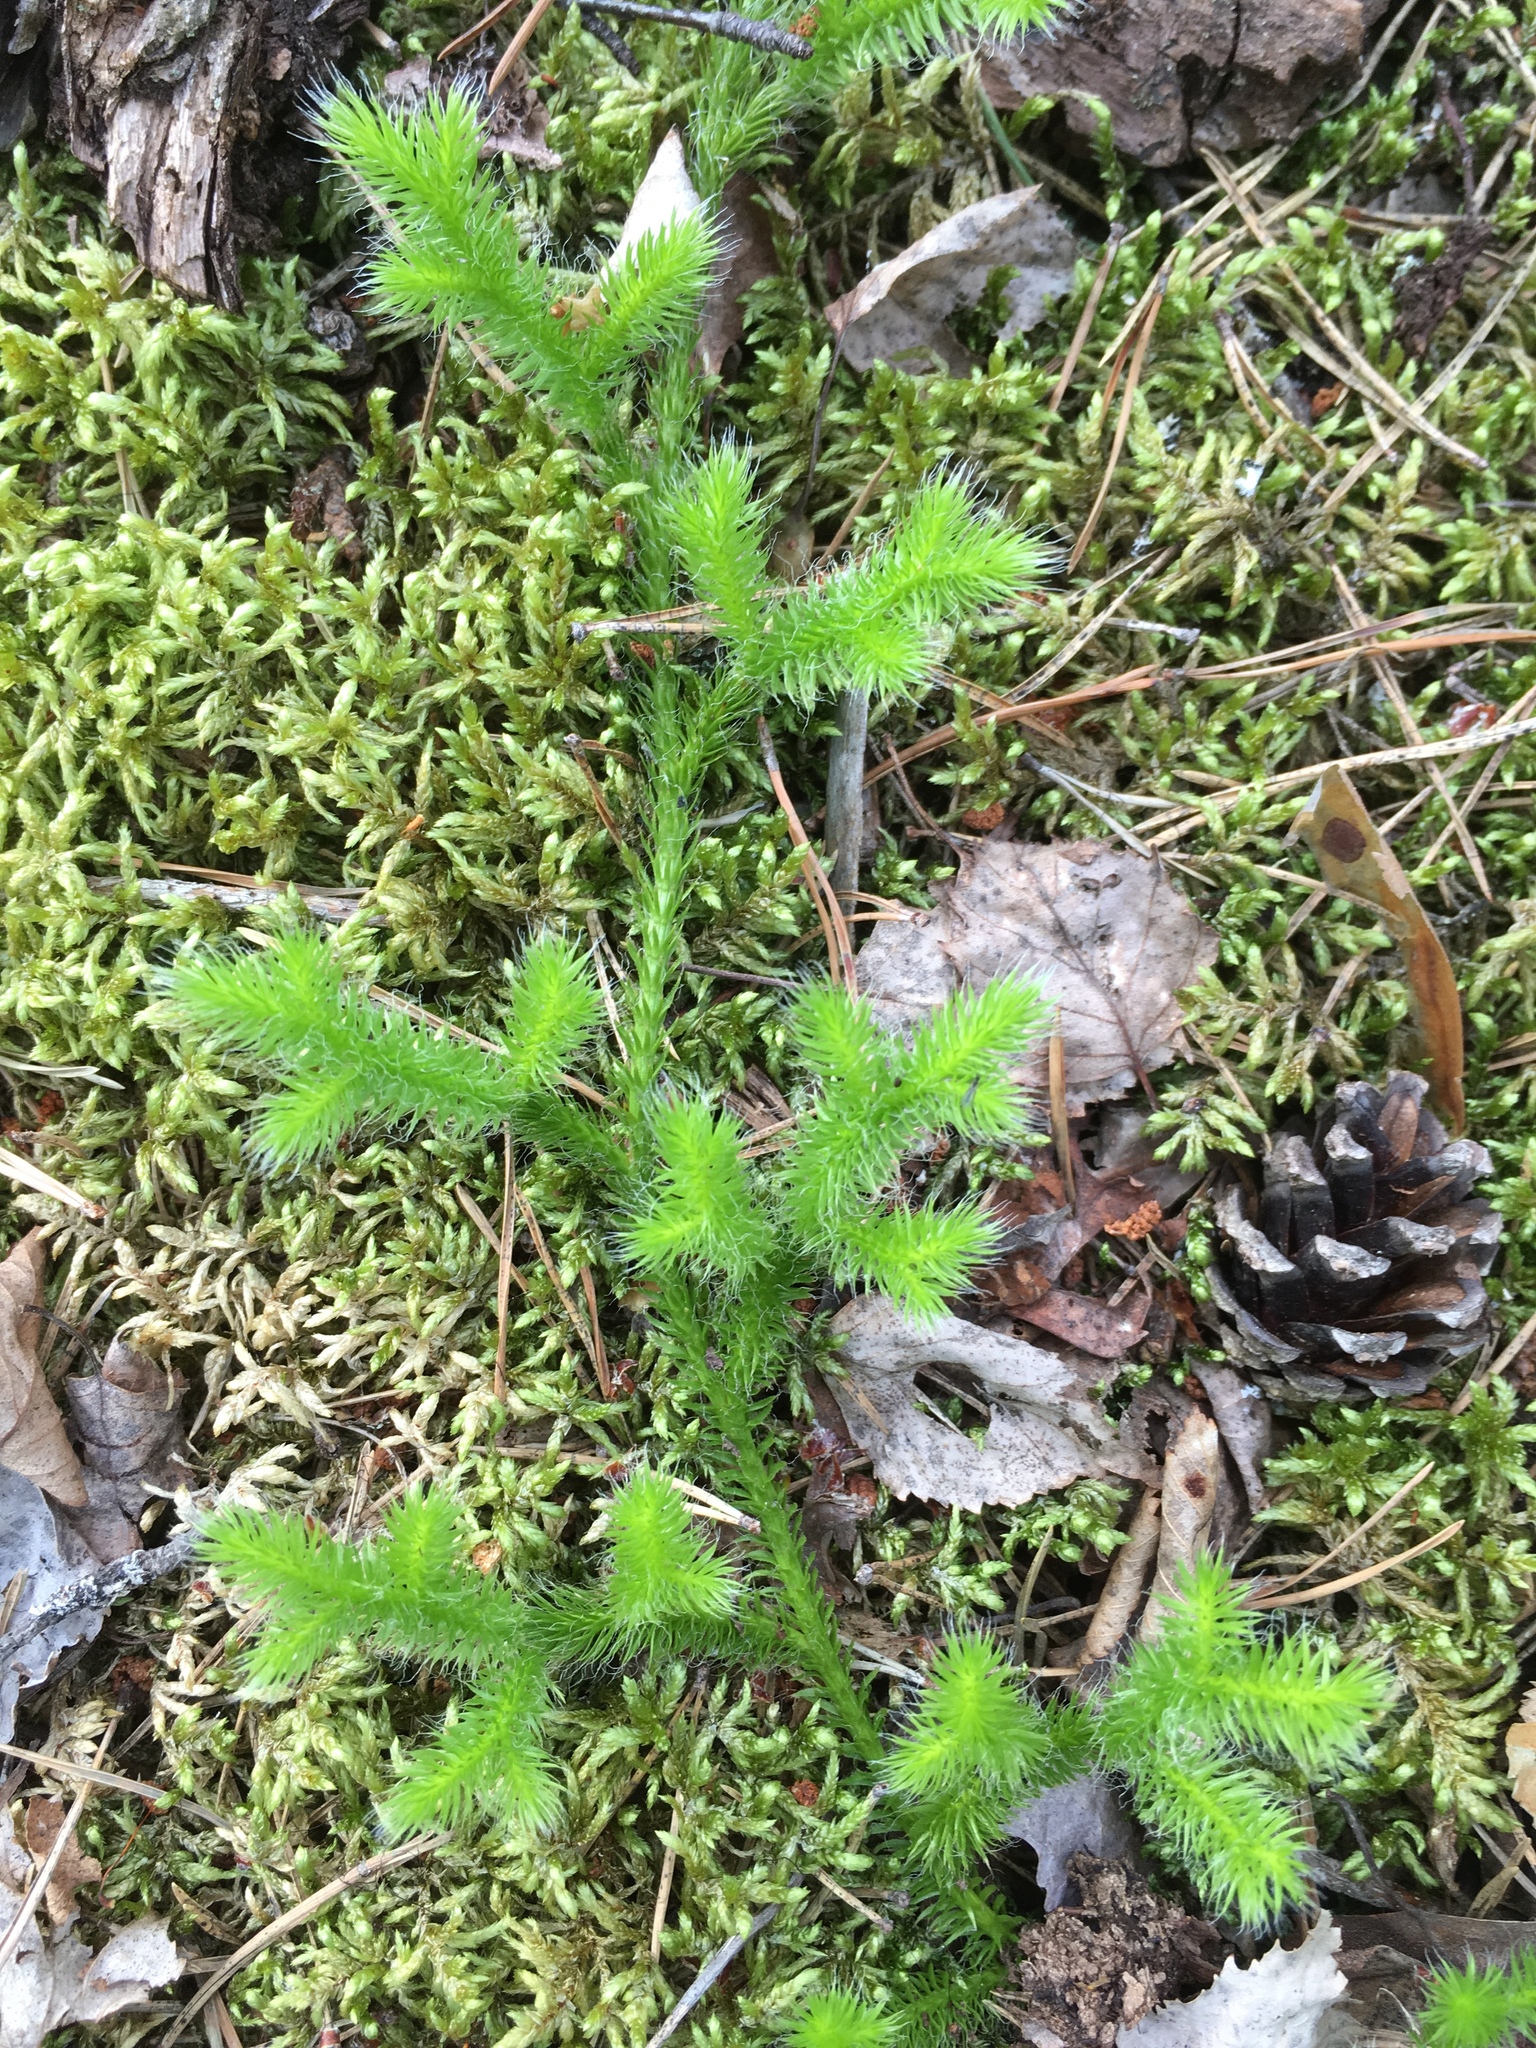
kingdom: Plantae
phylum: Tracheophyta
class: Lycopodiopsida
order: Lycopodiales
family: Lycopodiaceae
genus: Lycopodium
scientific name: Lycopodium clavatum
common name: Stag's-horn clubmoss
